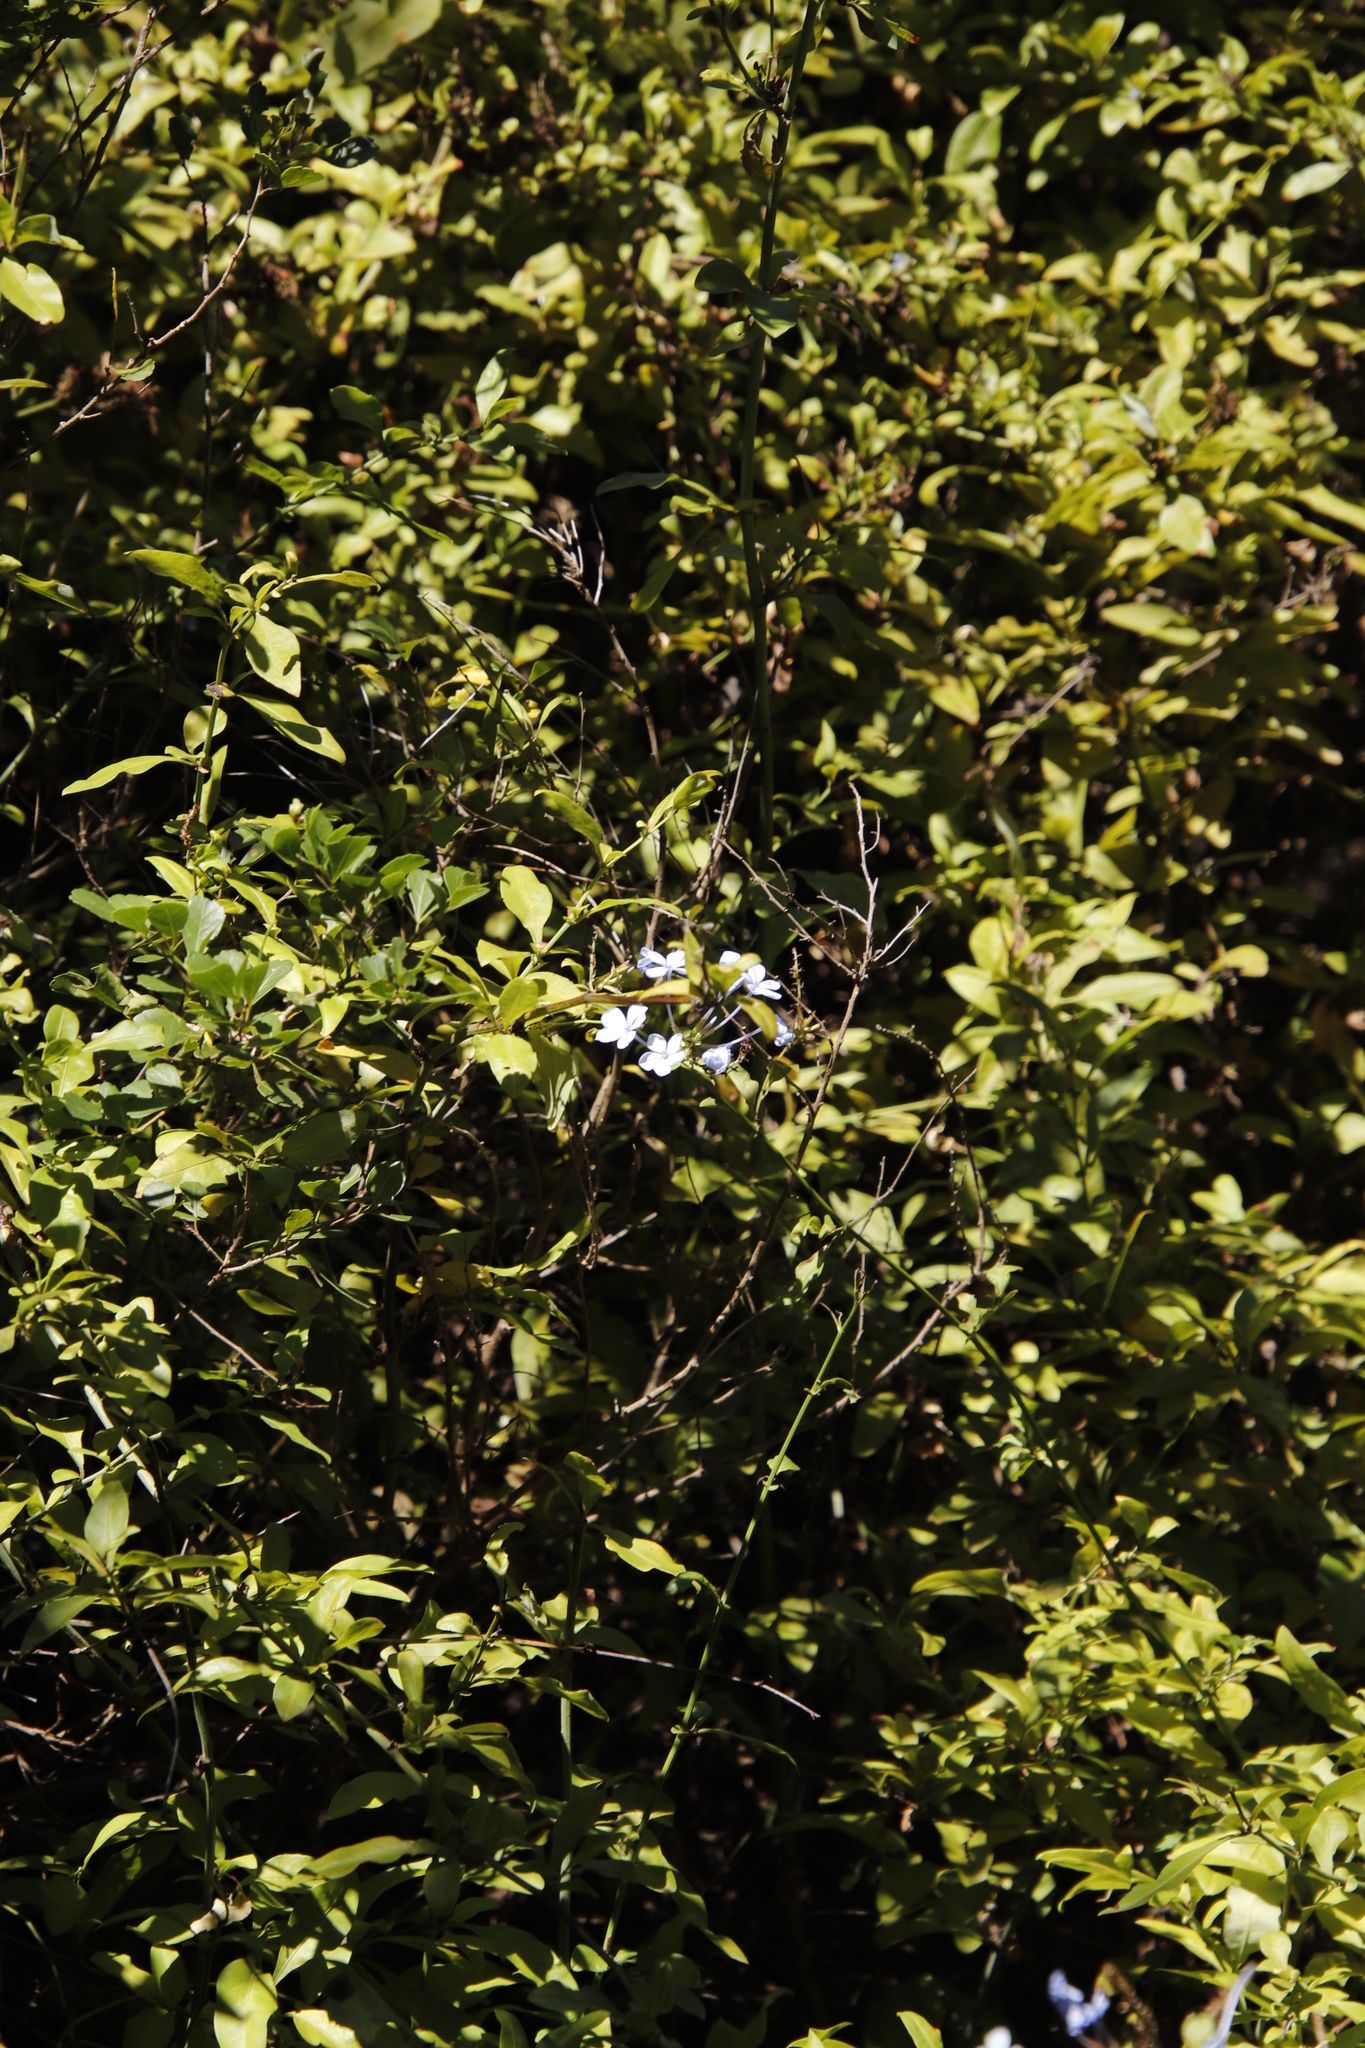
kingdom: Plantae
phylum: Tracheophyta
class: Magnoliopsida
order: Caryophyllales
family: Plumbaginaceae
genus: Plumbago
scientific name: Plumbago auriculata
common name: Cape leadwort
